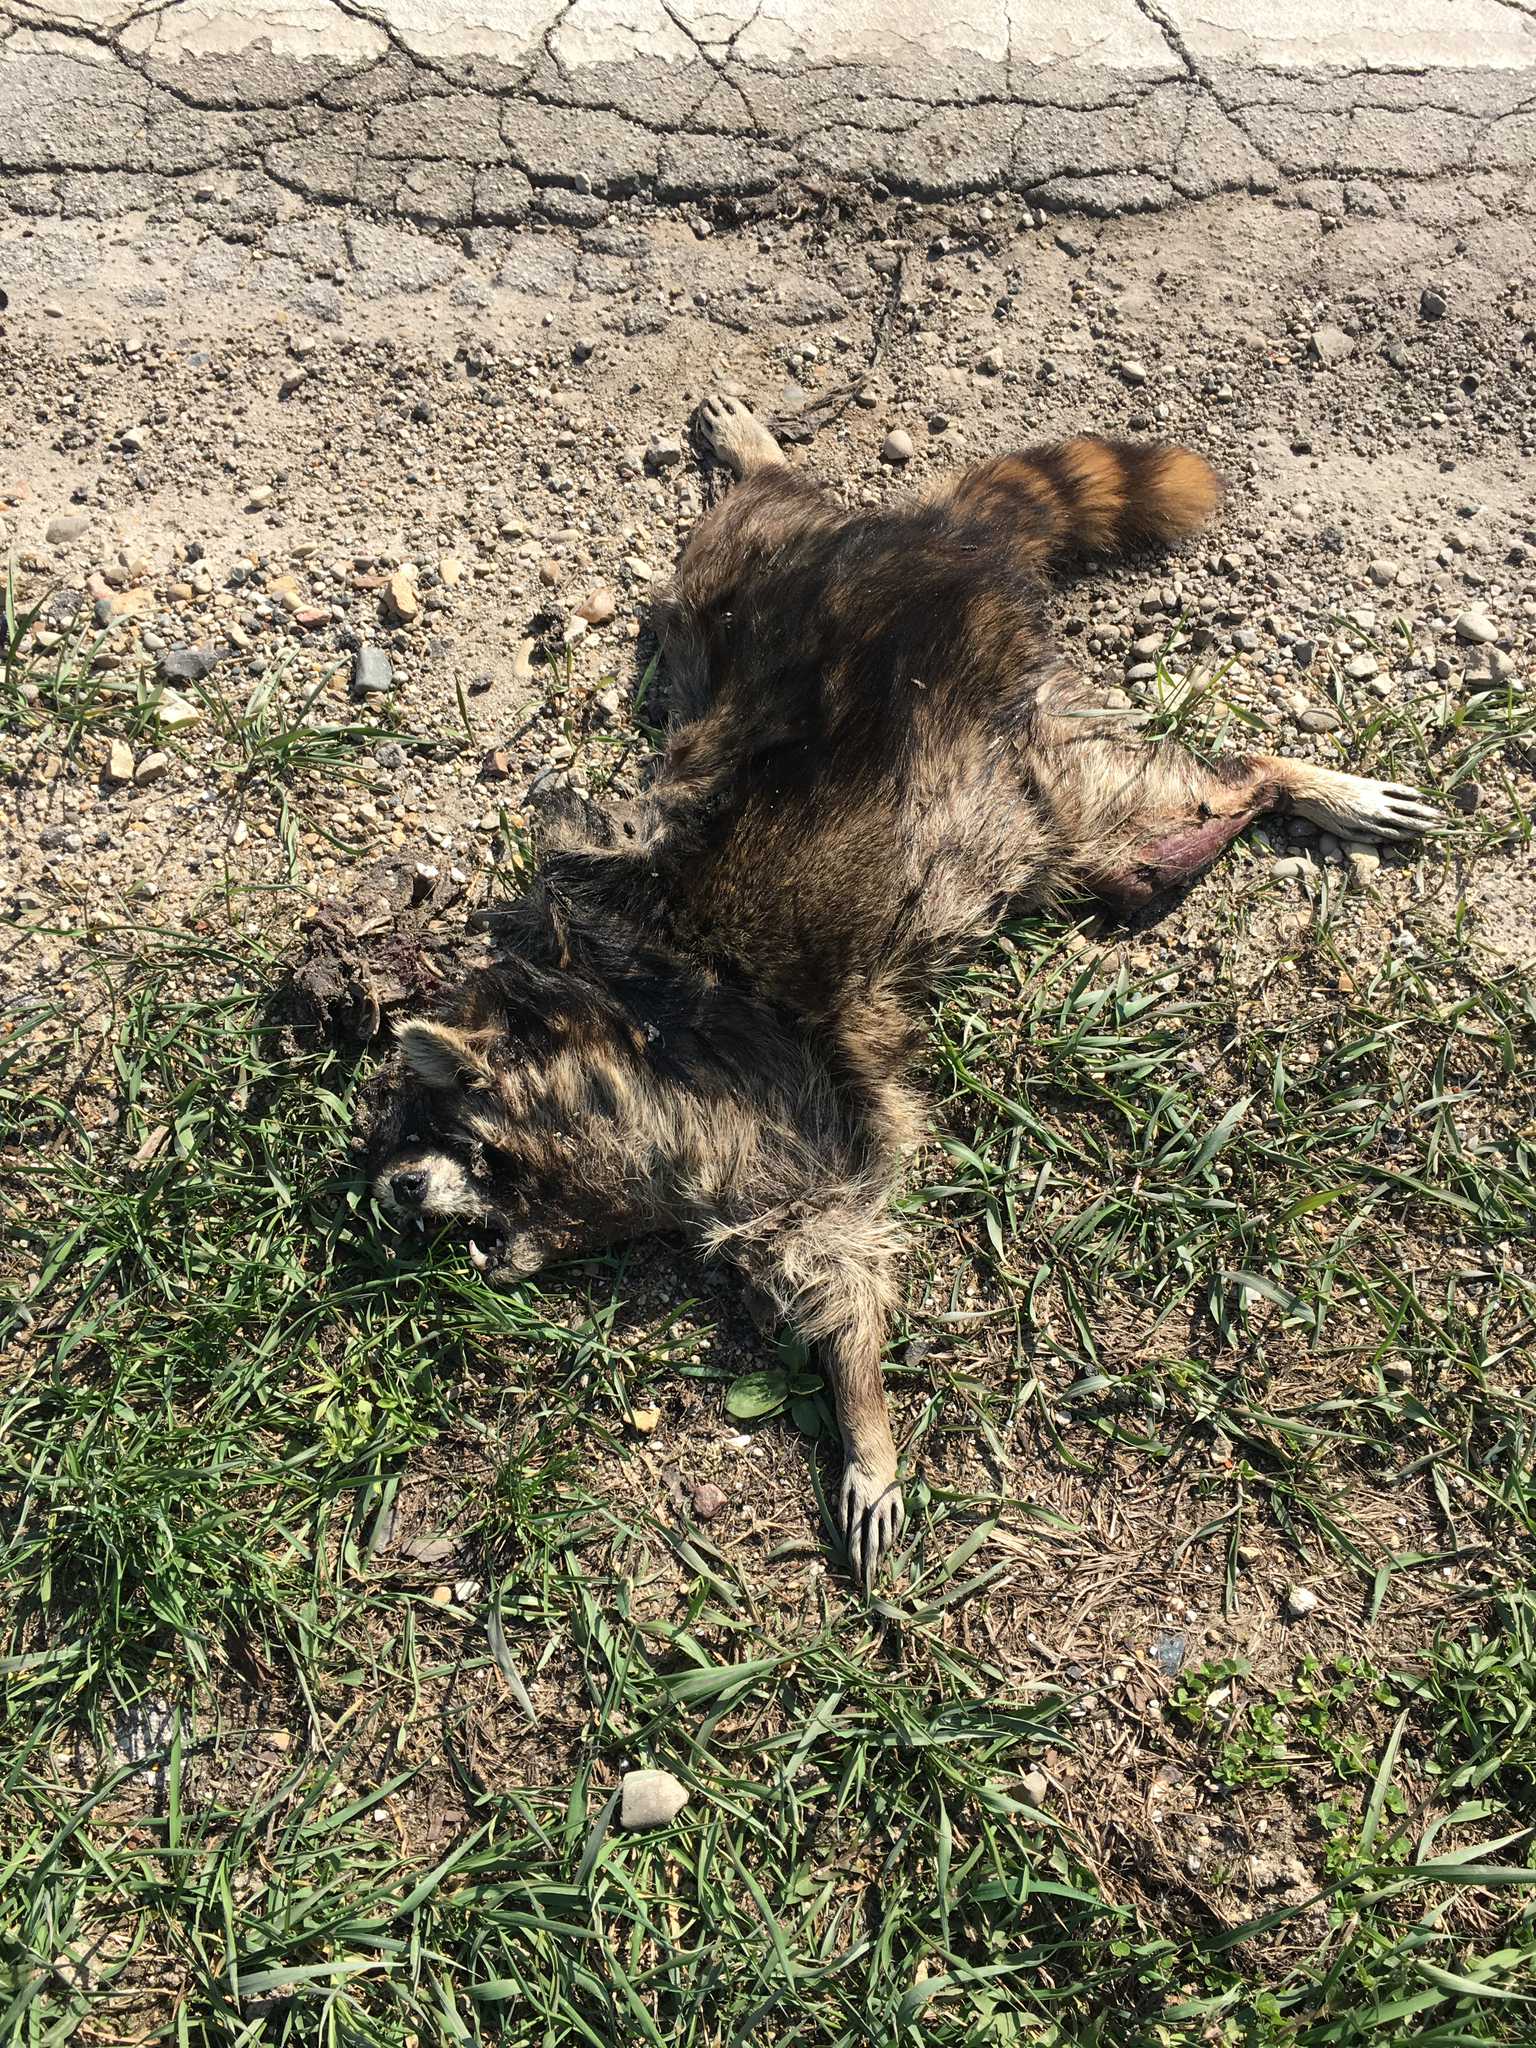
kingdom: Animalia
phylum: Chordata
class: Mammalia
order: Carnivora
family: Procyonidae
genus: Procyon
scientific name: Procyon lotor
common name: Raccoon
